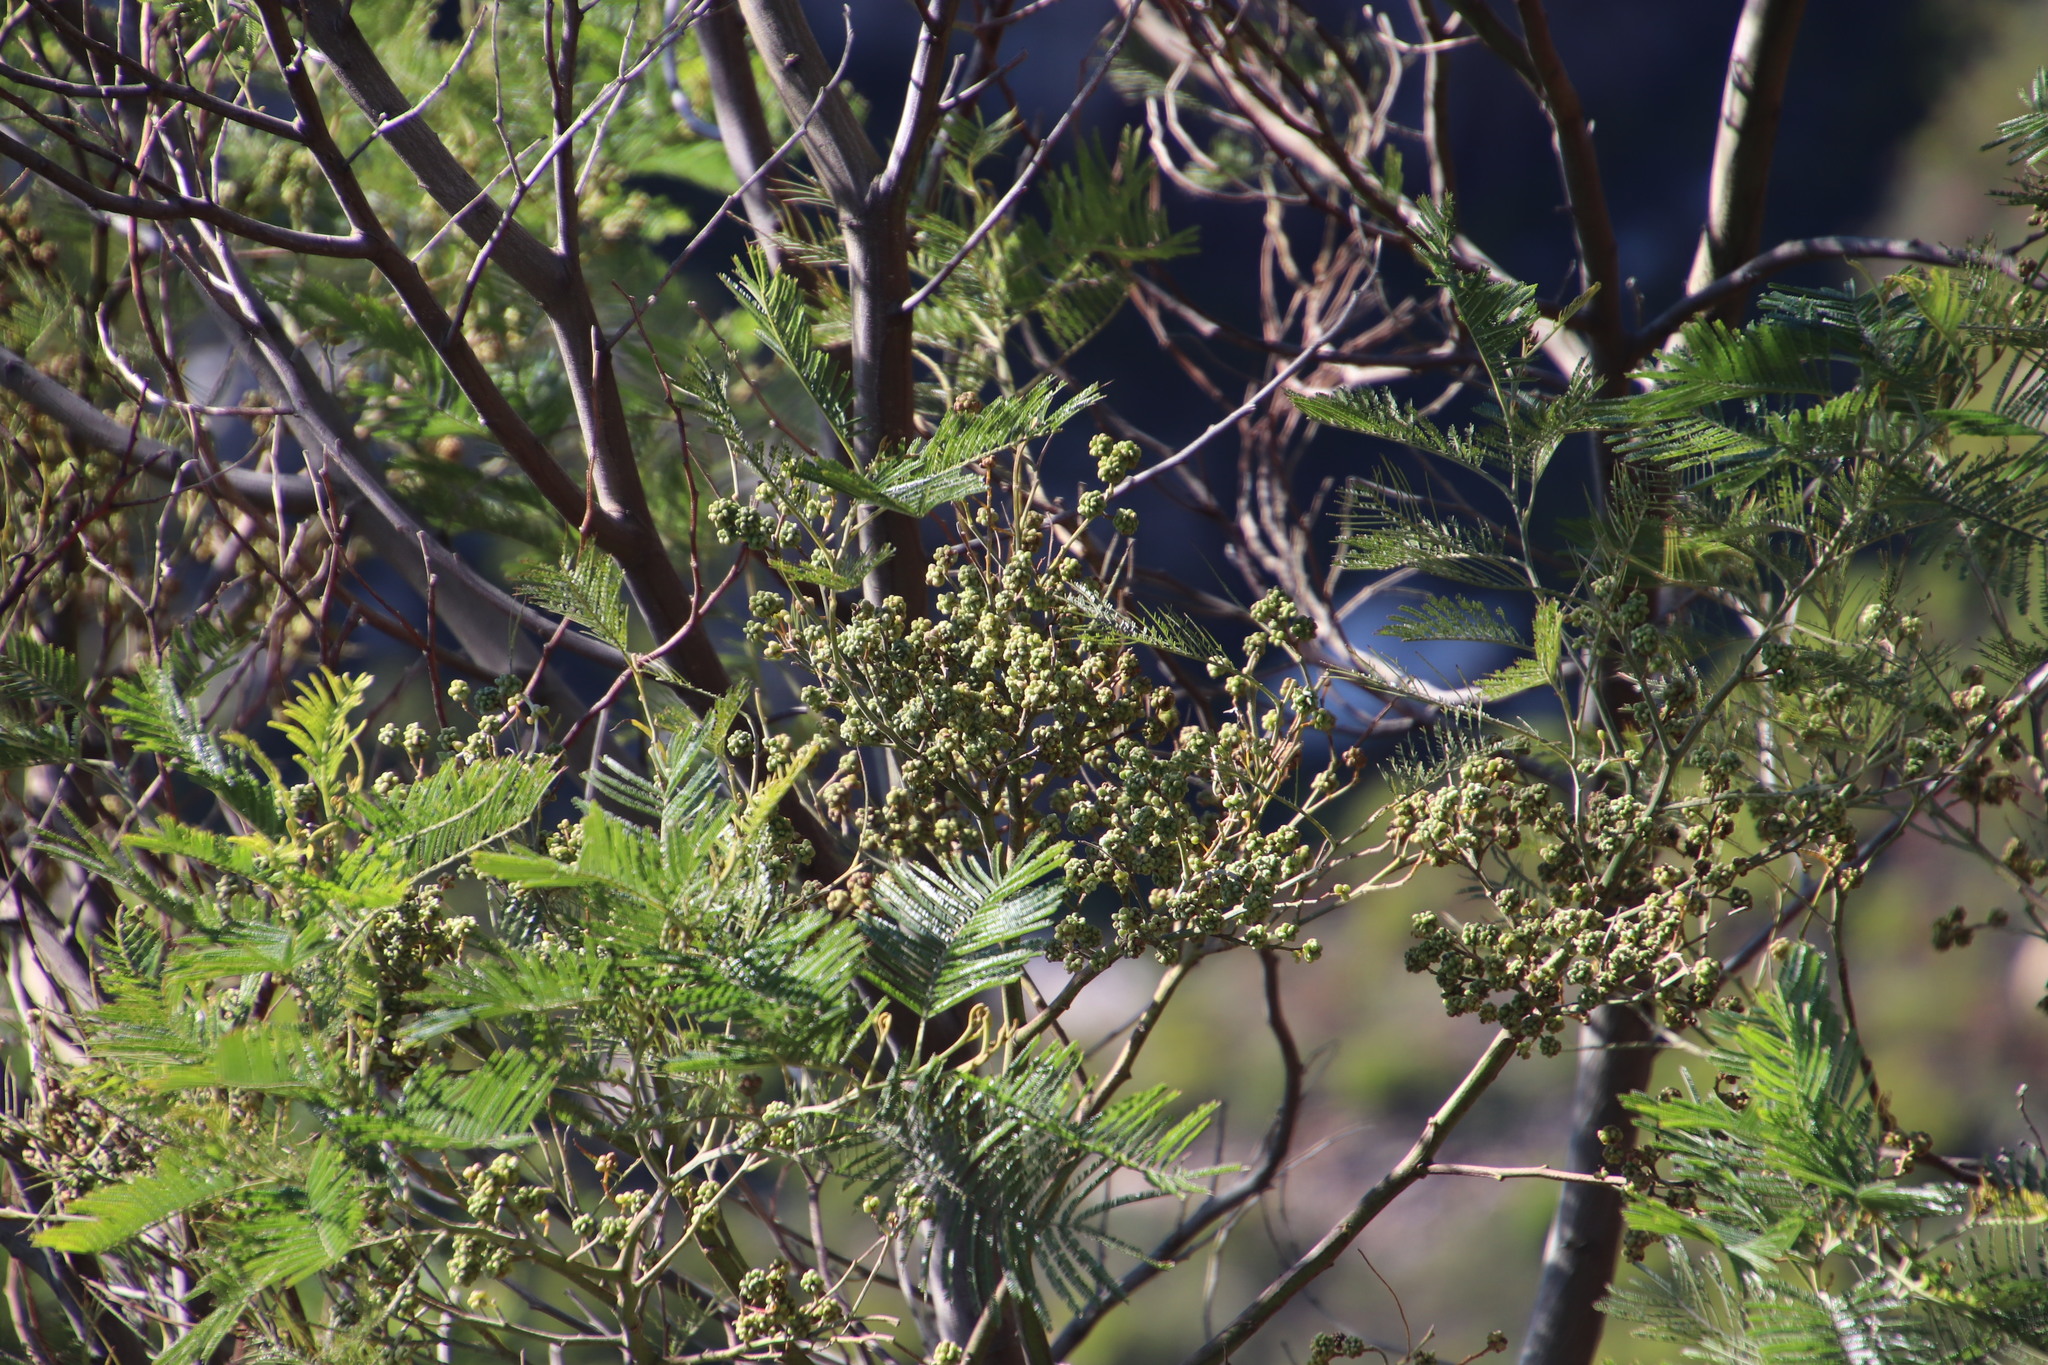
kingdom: Animalia
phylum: Arthropoda
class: Insecta
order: Diptera
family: Cecidomyiidae
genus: Dasineura
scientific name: Dasineura rubiformis
